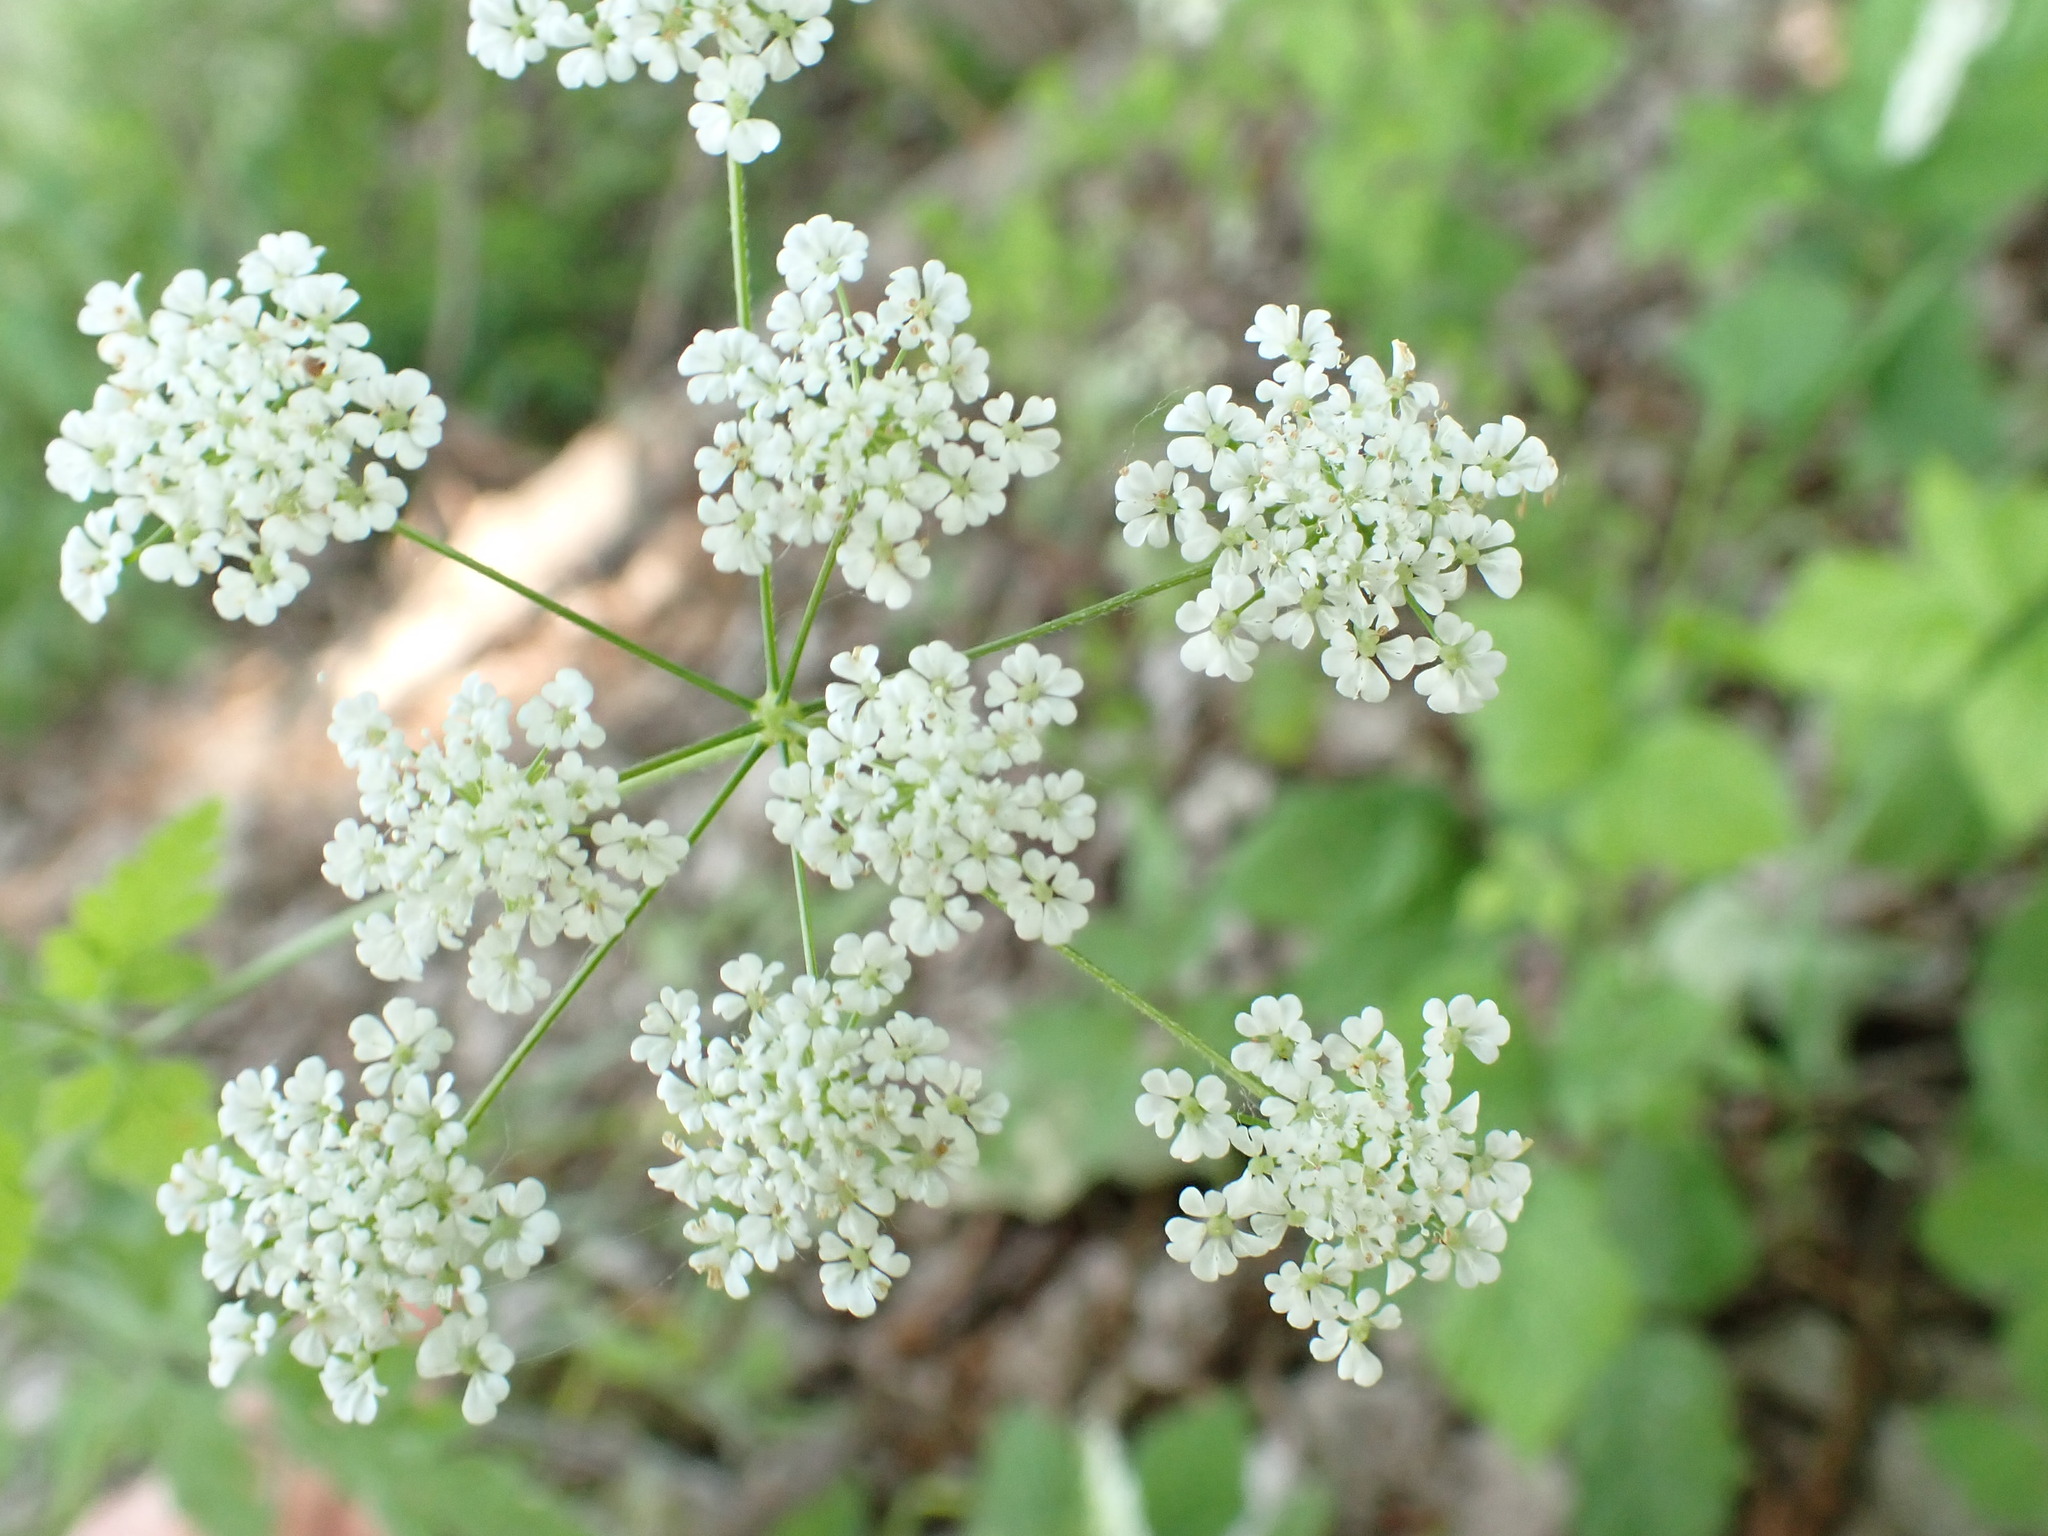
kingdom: Plantae
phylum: Tracheophyta
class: Magnoliopsida
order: Apiales
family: Apiaceae
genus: Chaerophyllum
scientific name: Chaerophyllum temulum
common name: Rough chervil
